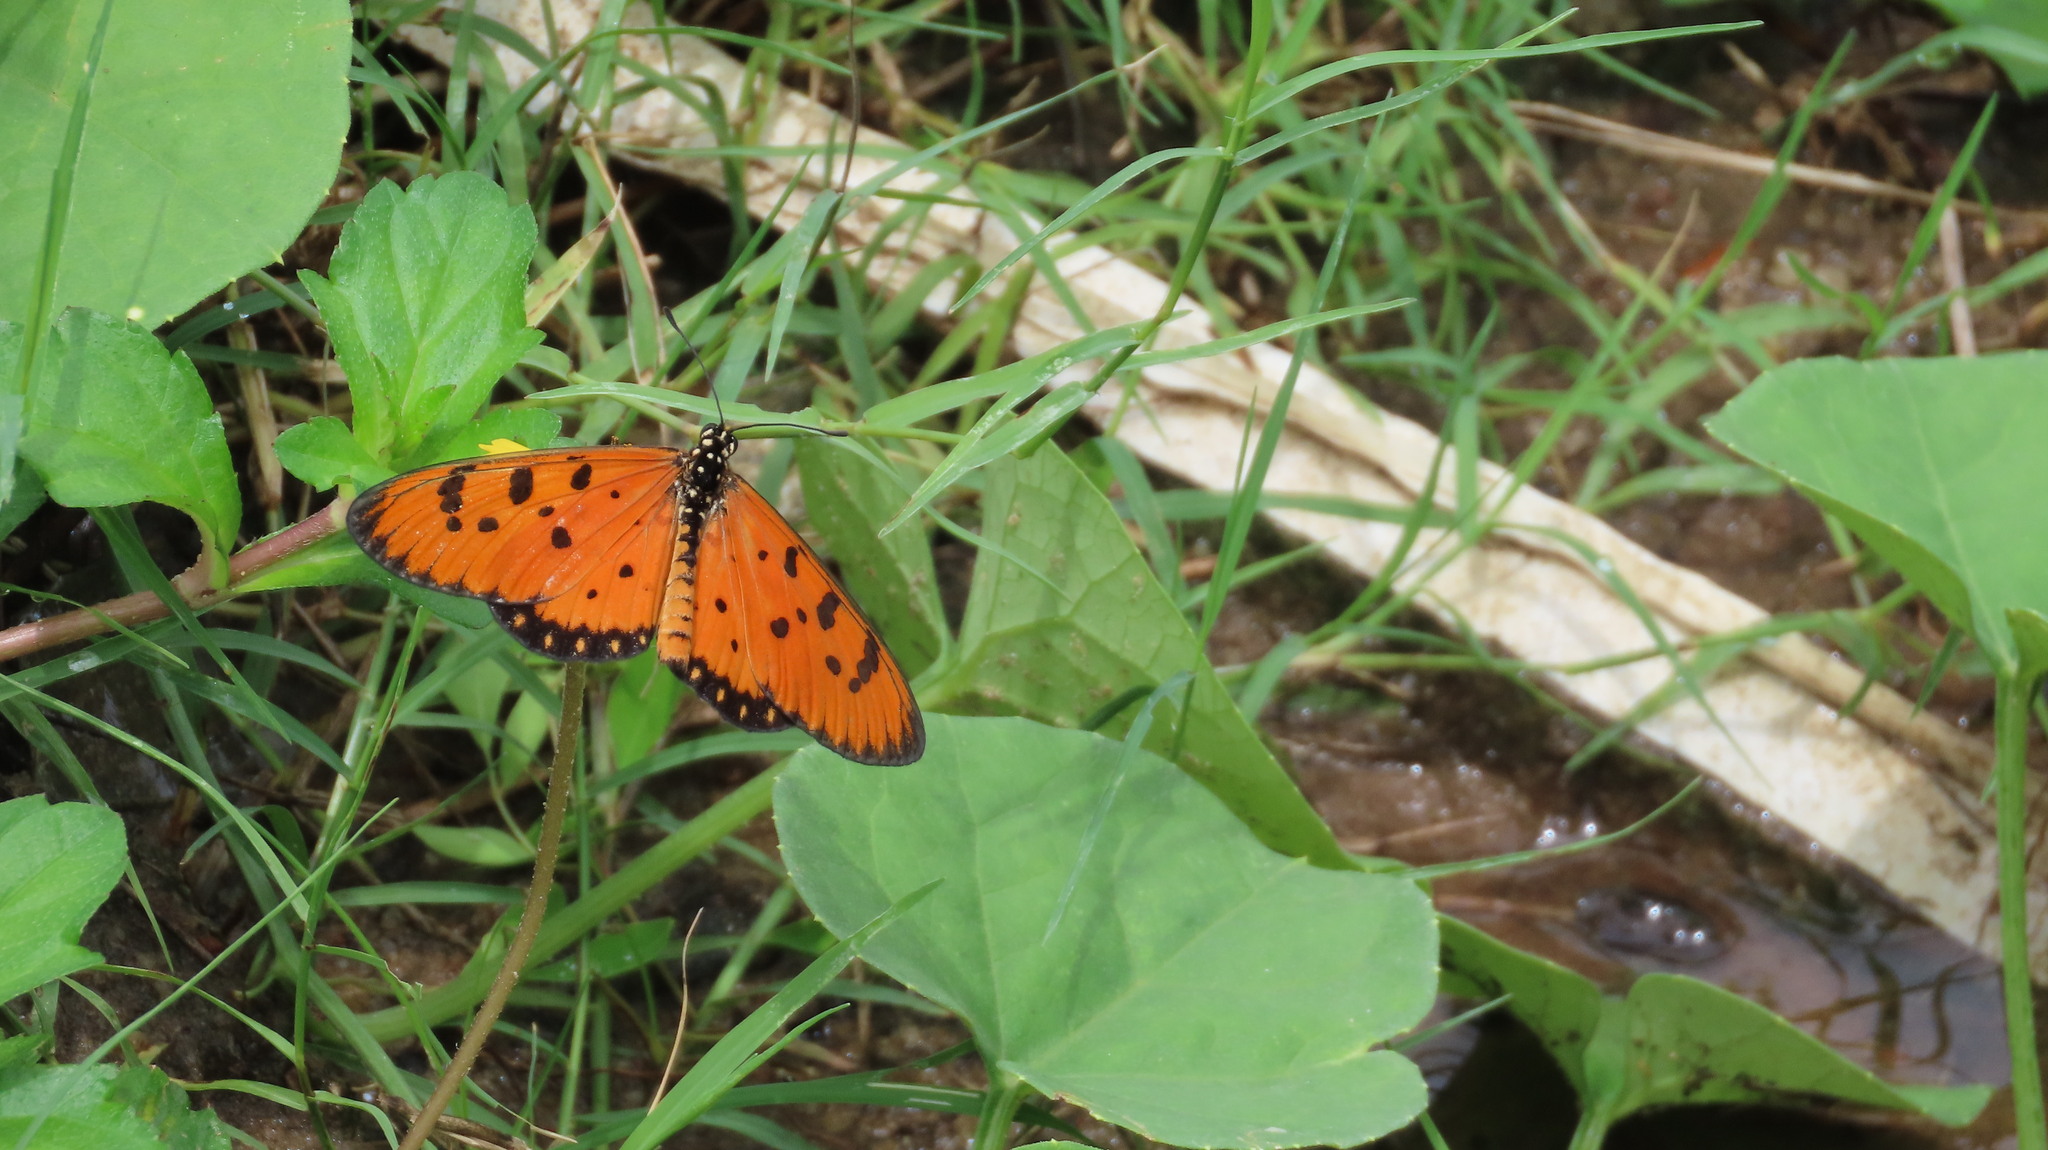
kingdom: Animalia
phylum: Arthropoda
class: Insecta
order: Lepidoptera
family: Nymphalidae
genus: Acraea
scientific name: Acraea terpsicore
